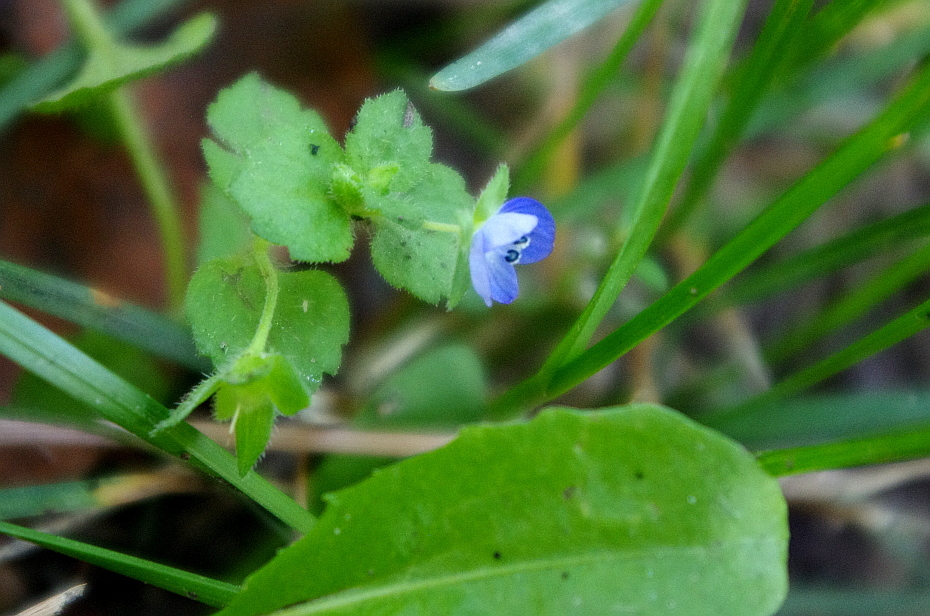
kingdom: Plantae
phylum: Tracheophyta
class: Magnoliopsida
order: Lamiales
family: Plantaginaceae
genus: Veronica
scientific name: Veronica persica
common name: Common field-speedwell
